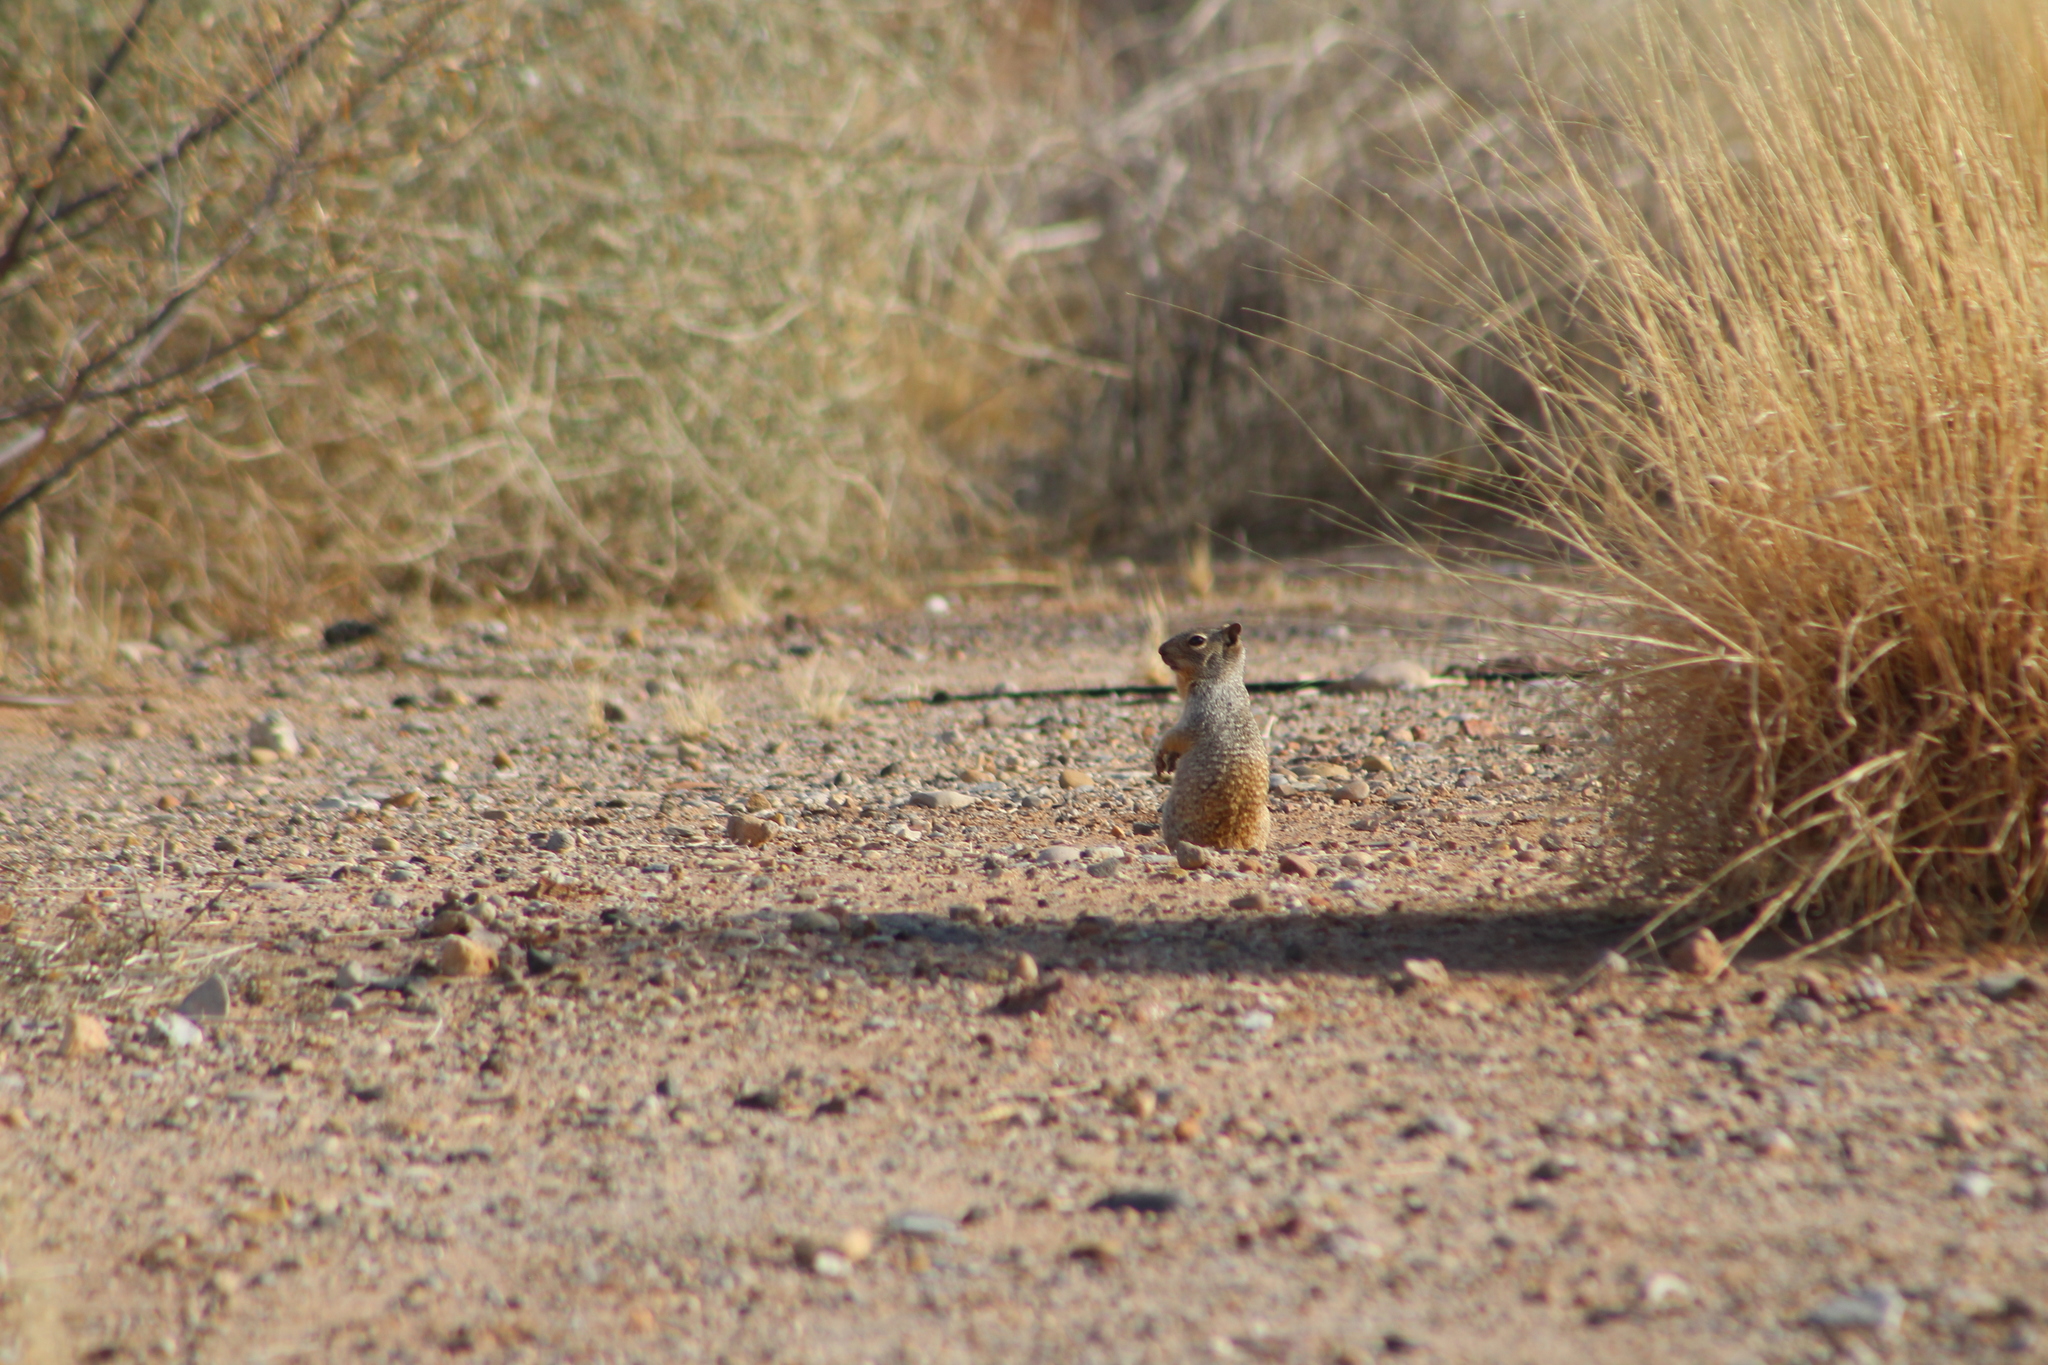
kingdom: Animalia
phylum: Chordata
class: Mammalia
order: Rodentia
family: Sciuridae
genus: Otospermophilus
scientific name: Otospermophilus variegatus
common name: Rock squirrel
